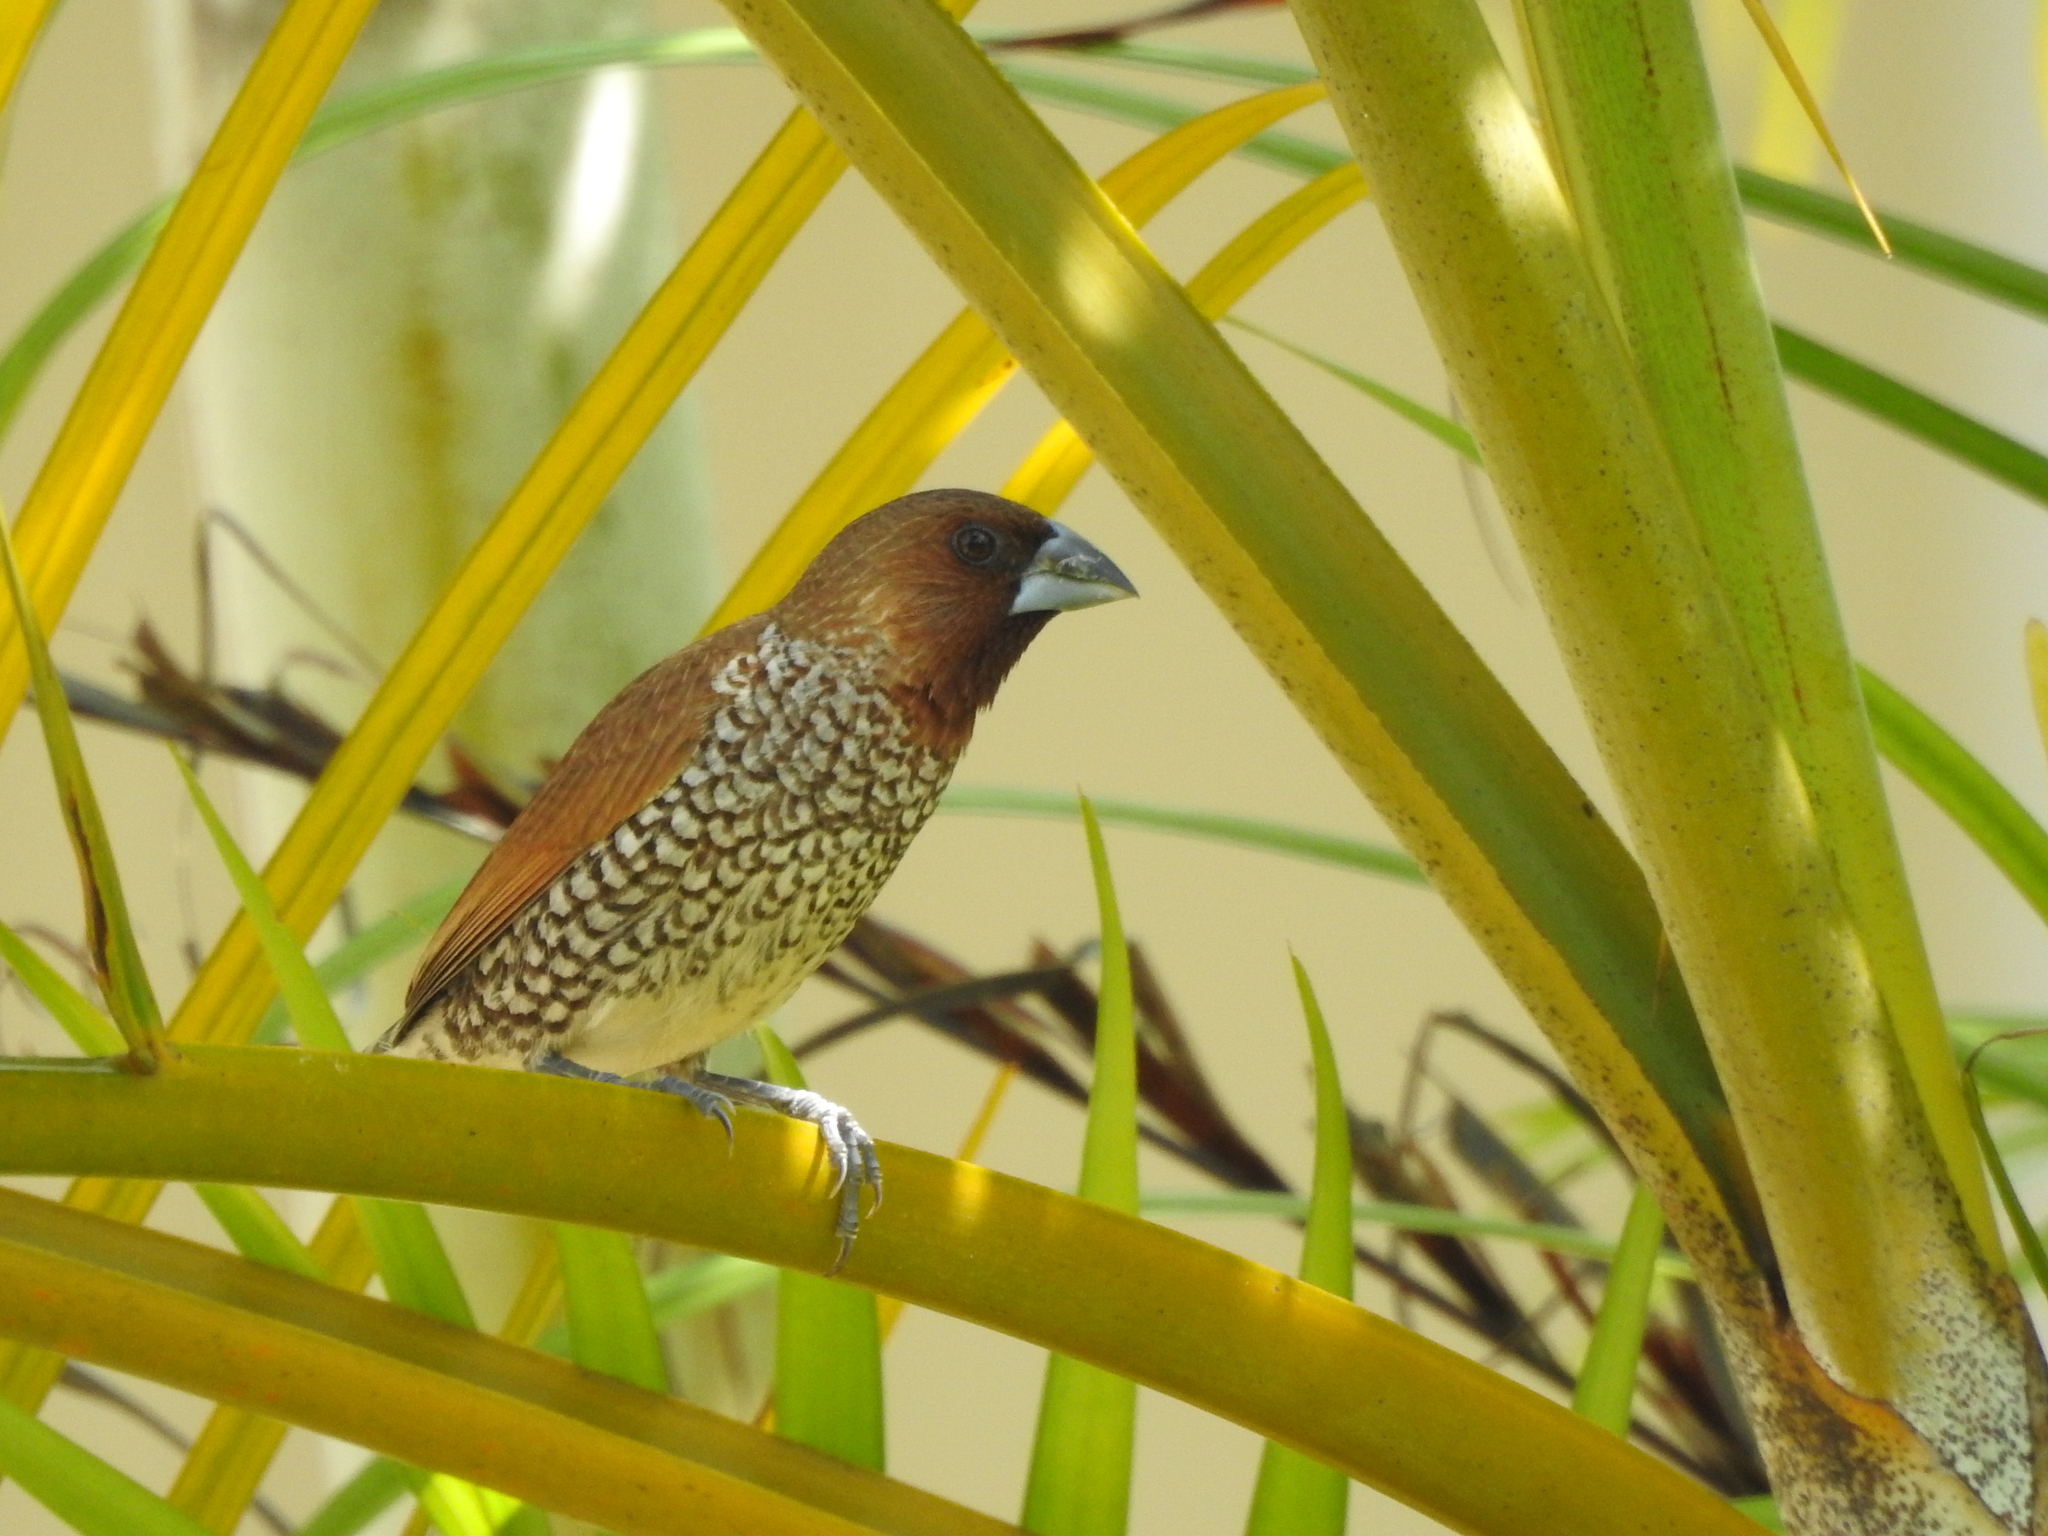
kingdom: Animalia
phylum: Chordata
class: Aves
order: Passeriformes
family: Estrildidae
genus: Lonchura
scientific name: Lonchura punctulata
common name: Scaly-breasted munia
